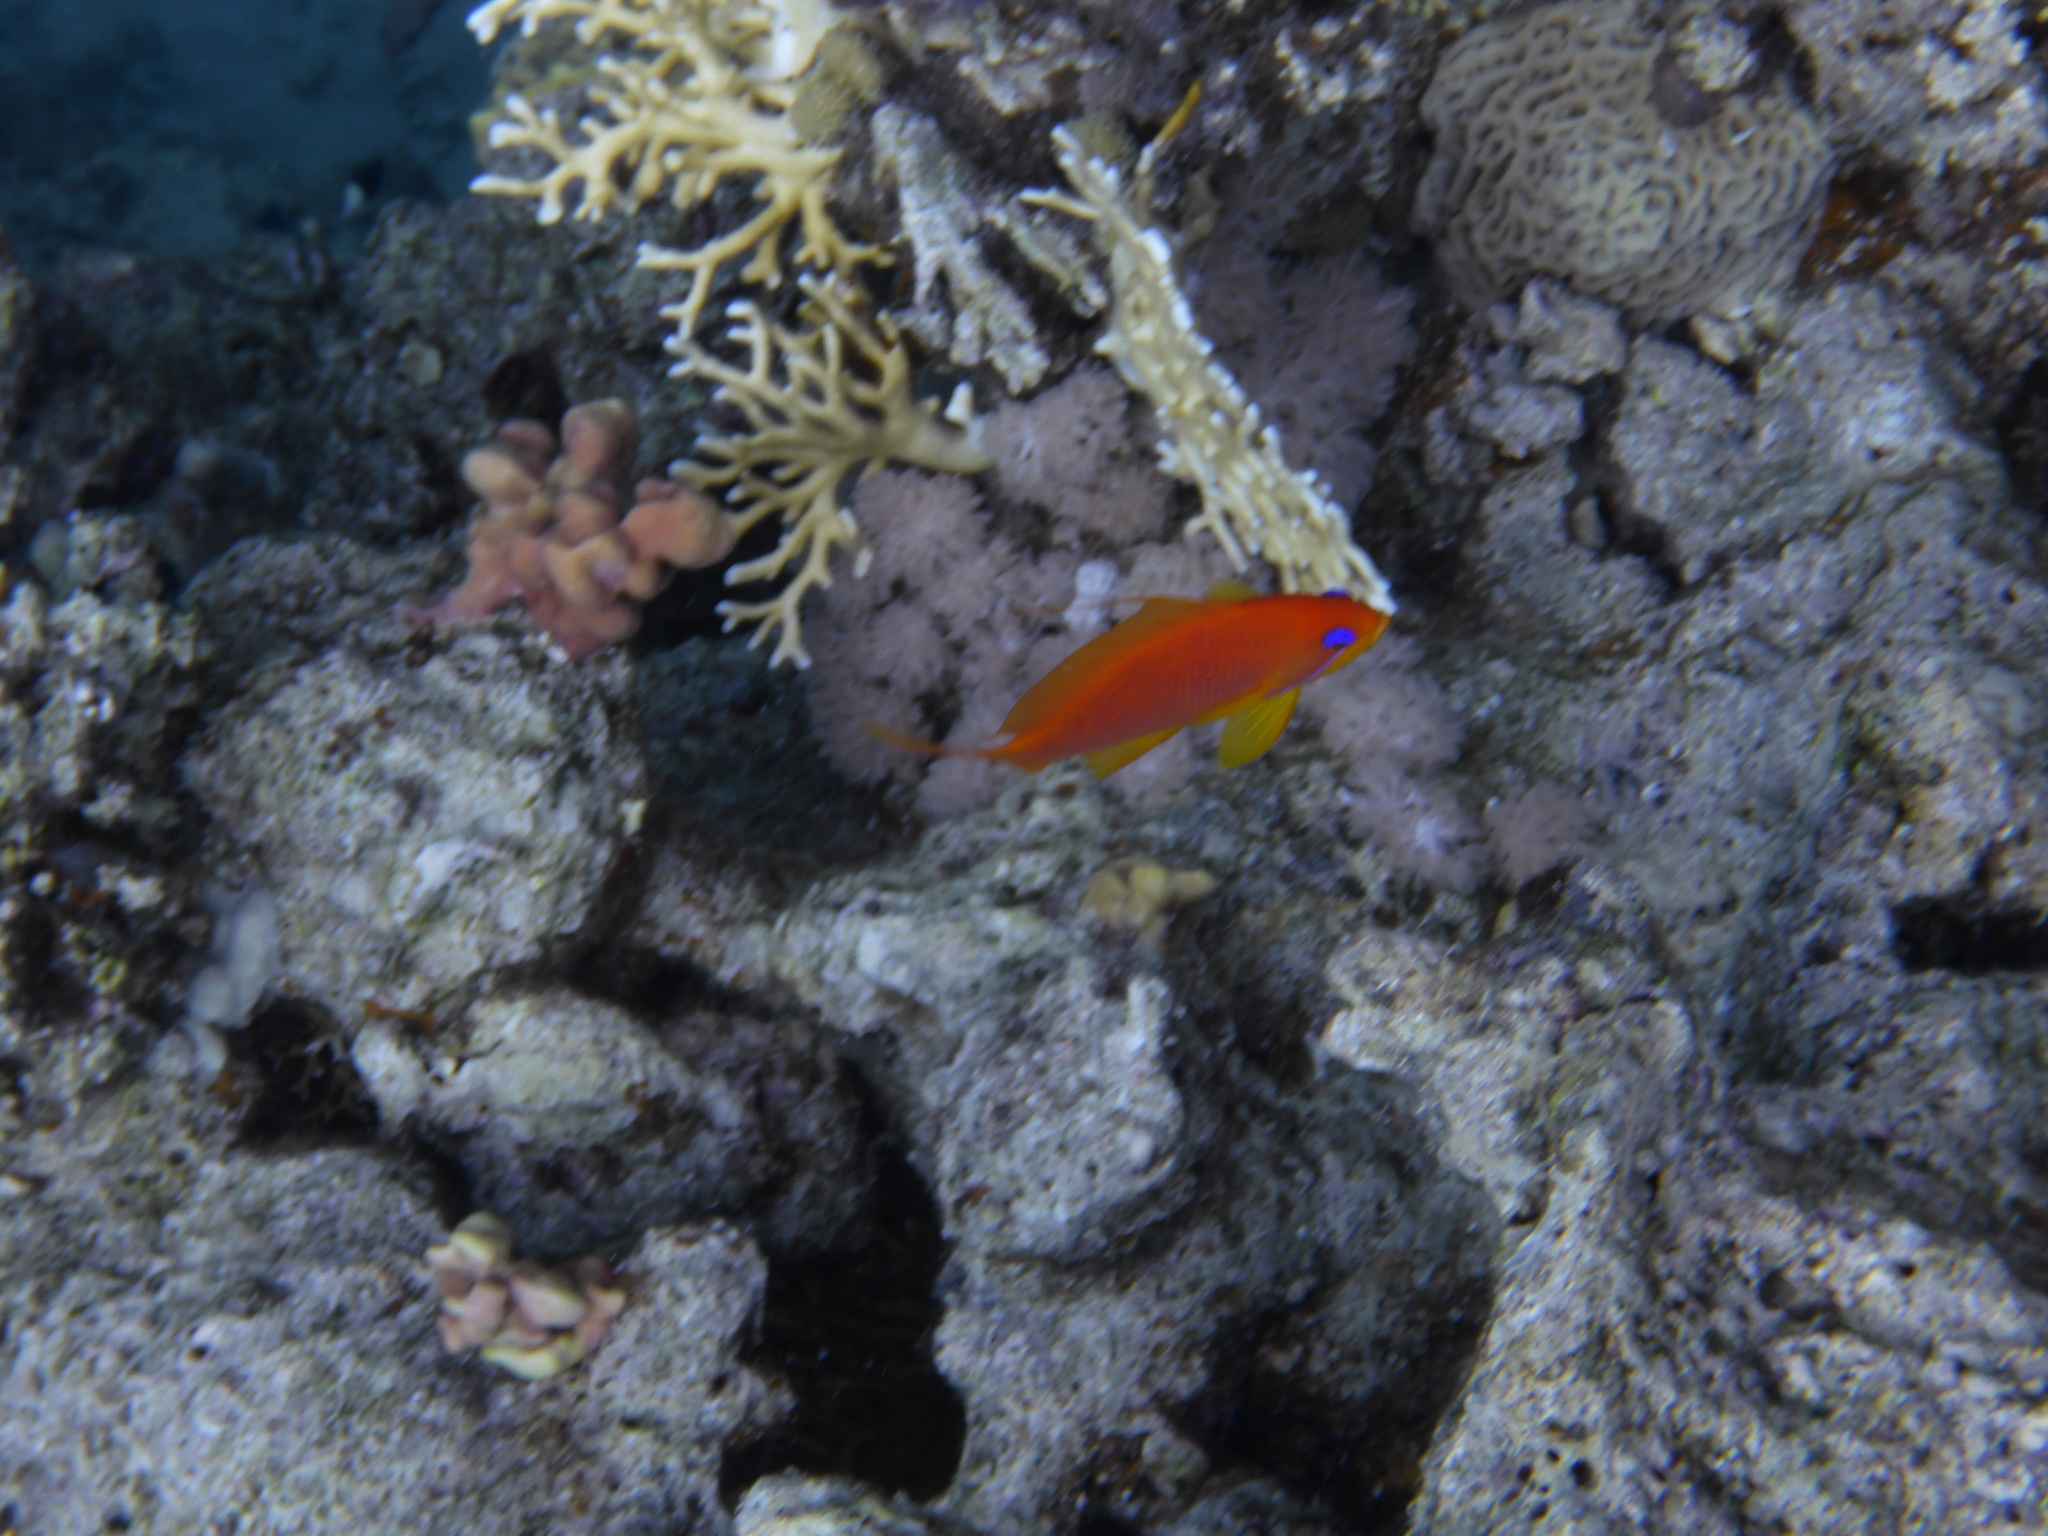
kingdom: Animalia
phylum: Chordata
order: Perciformes
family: Serranidae
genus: Pseudanthias
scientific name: Pseudanthias squamipinnis
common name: Scalefin anthias
